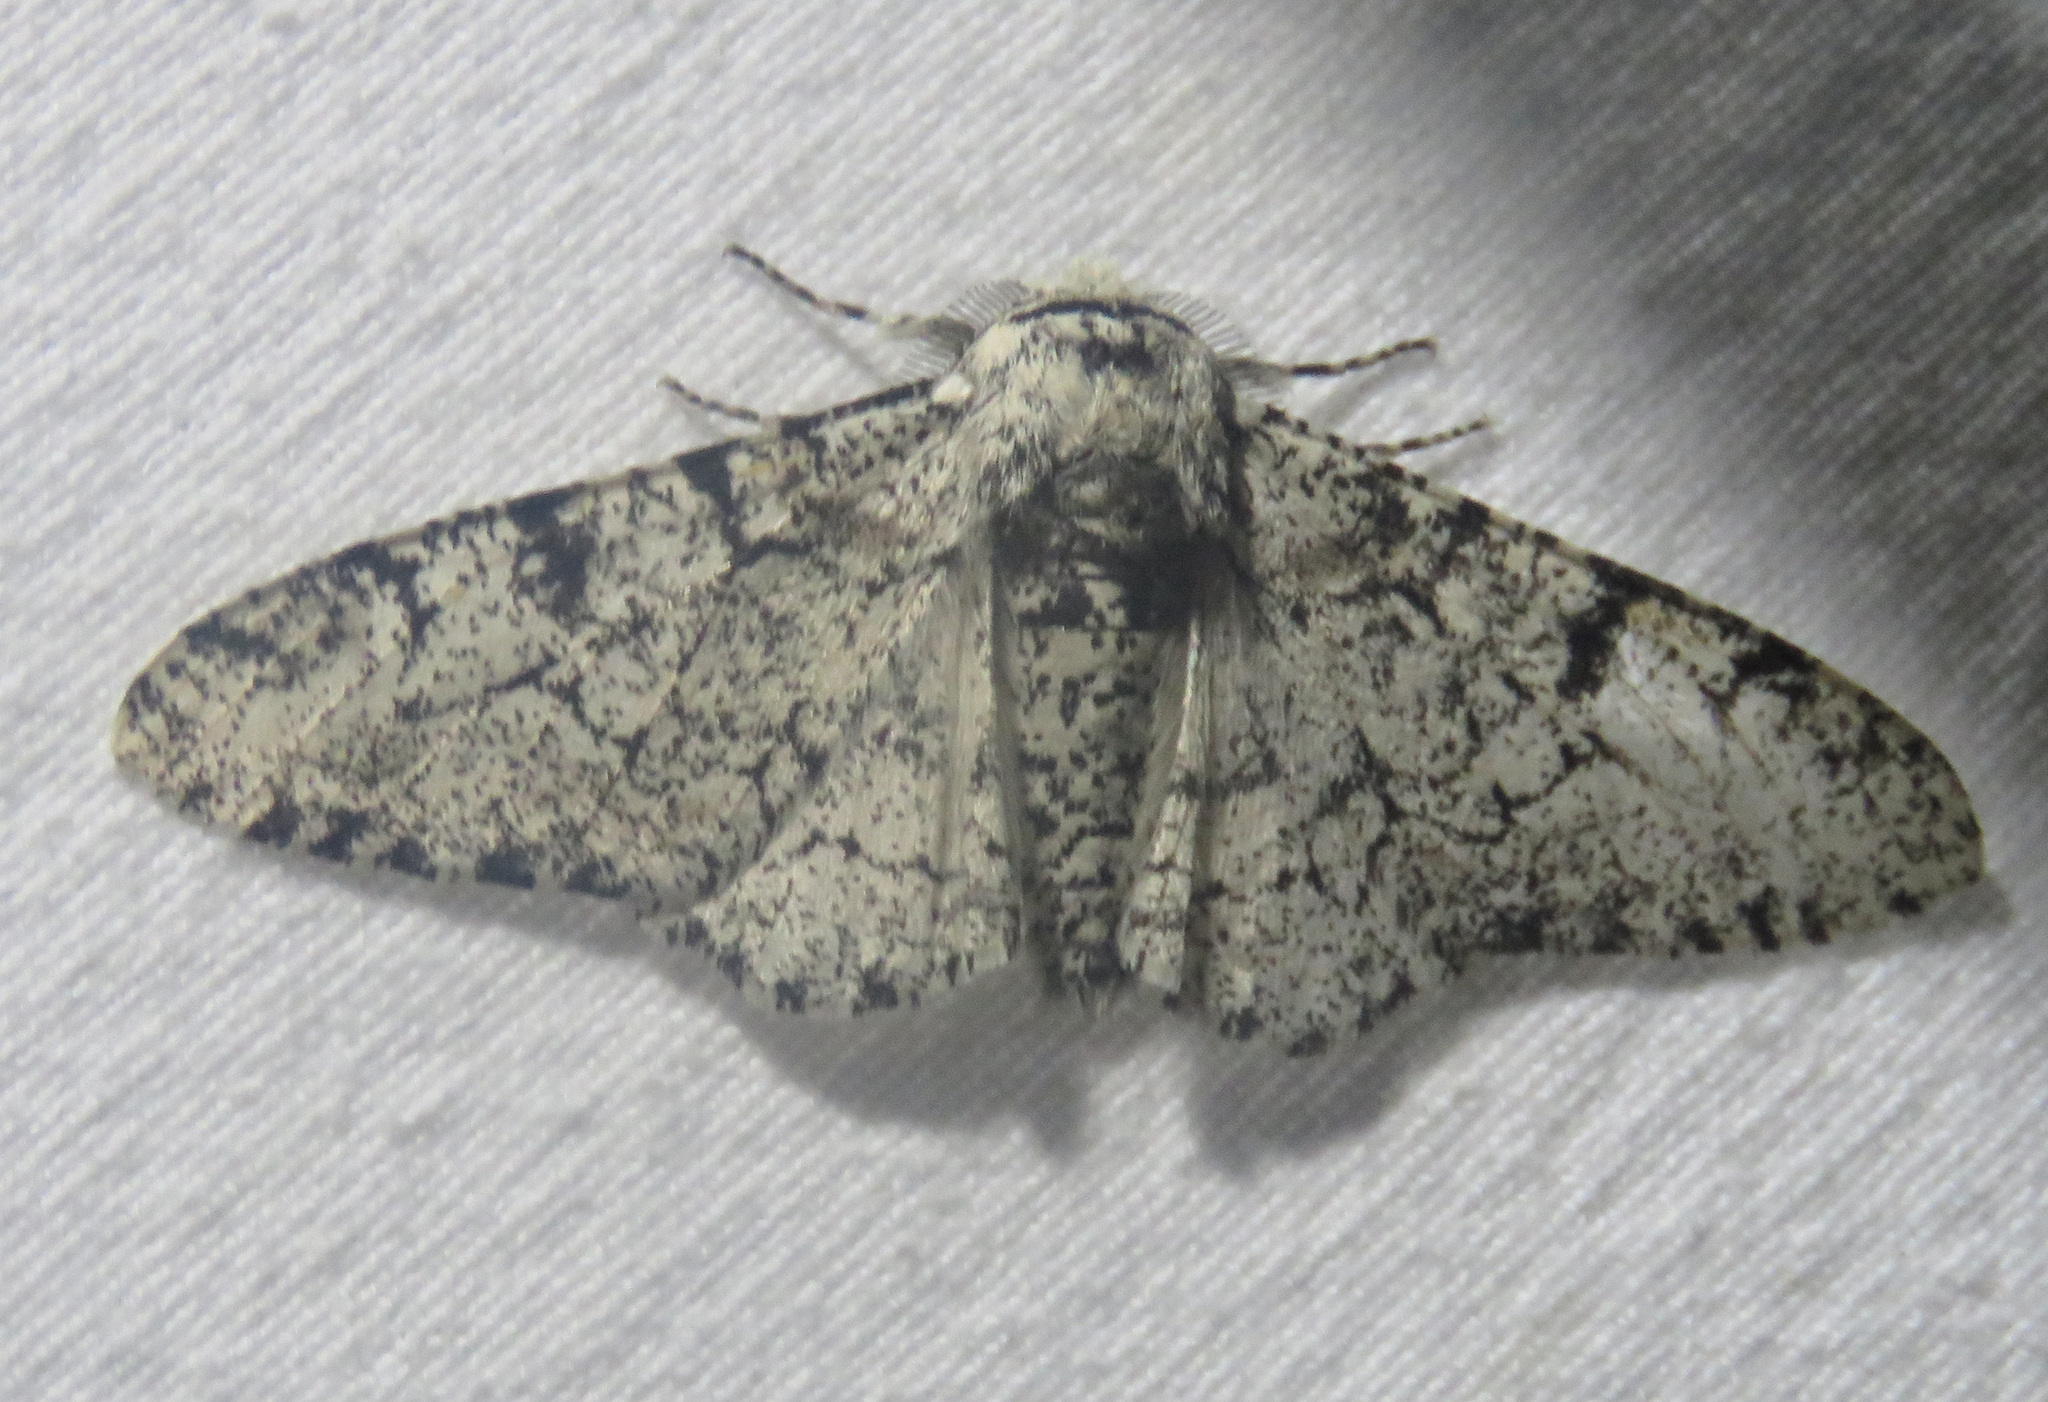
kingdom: Animalia
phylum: Arthropoda
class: Insecta
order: Lepidoptera
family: Geometridae
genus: Biston
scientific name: Biston betularia
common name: Peppered moth
